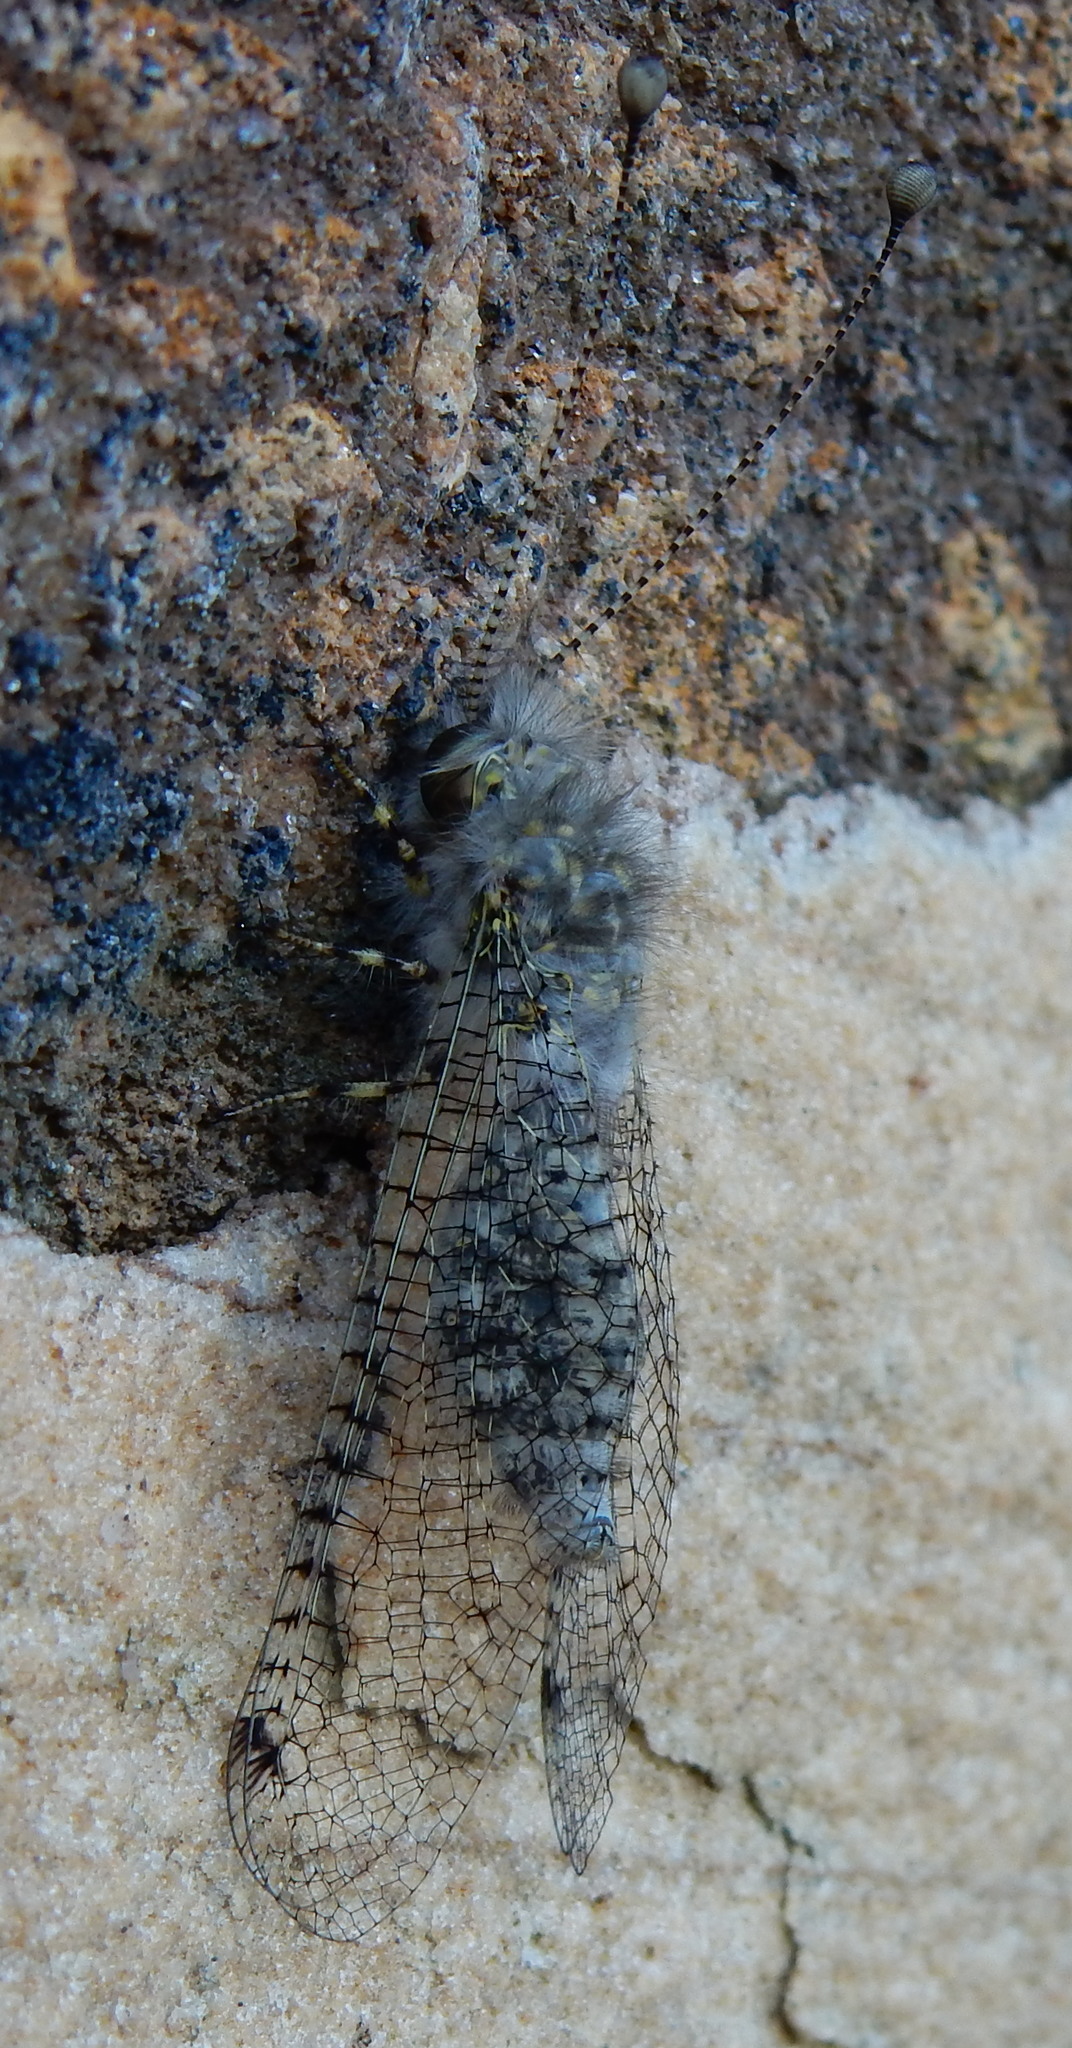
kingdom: Animalia
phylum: Arthropoda
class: Insecta
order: Neuroptera
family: Ascalaphidae
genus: Proctarrelabis
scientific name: Proctarrelabis capensis
